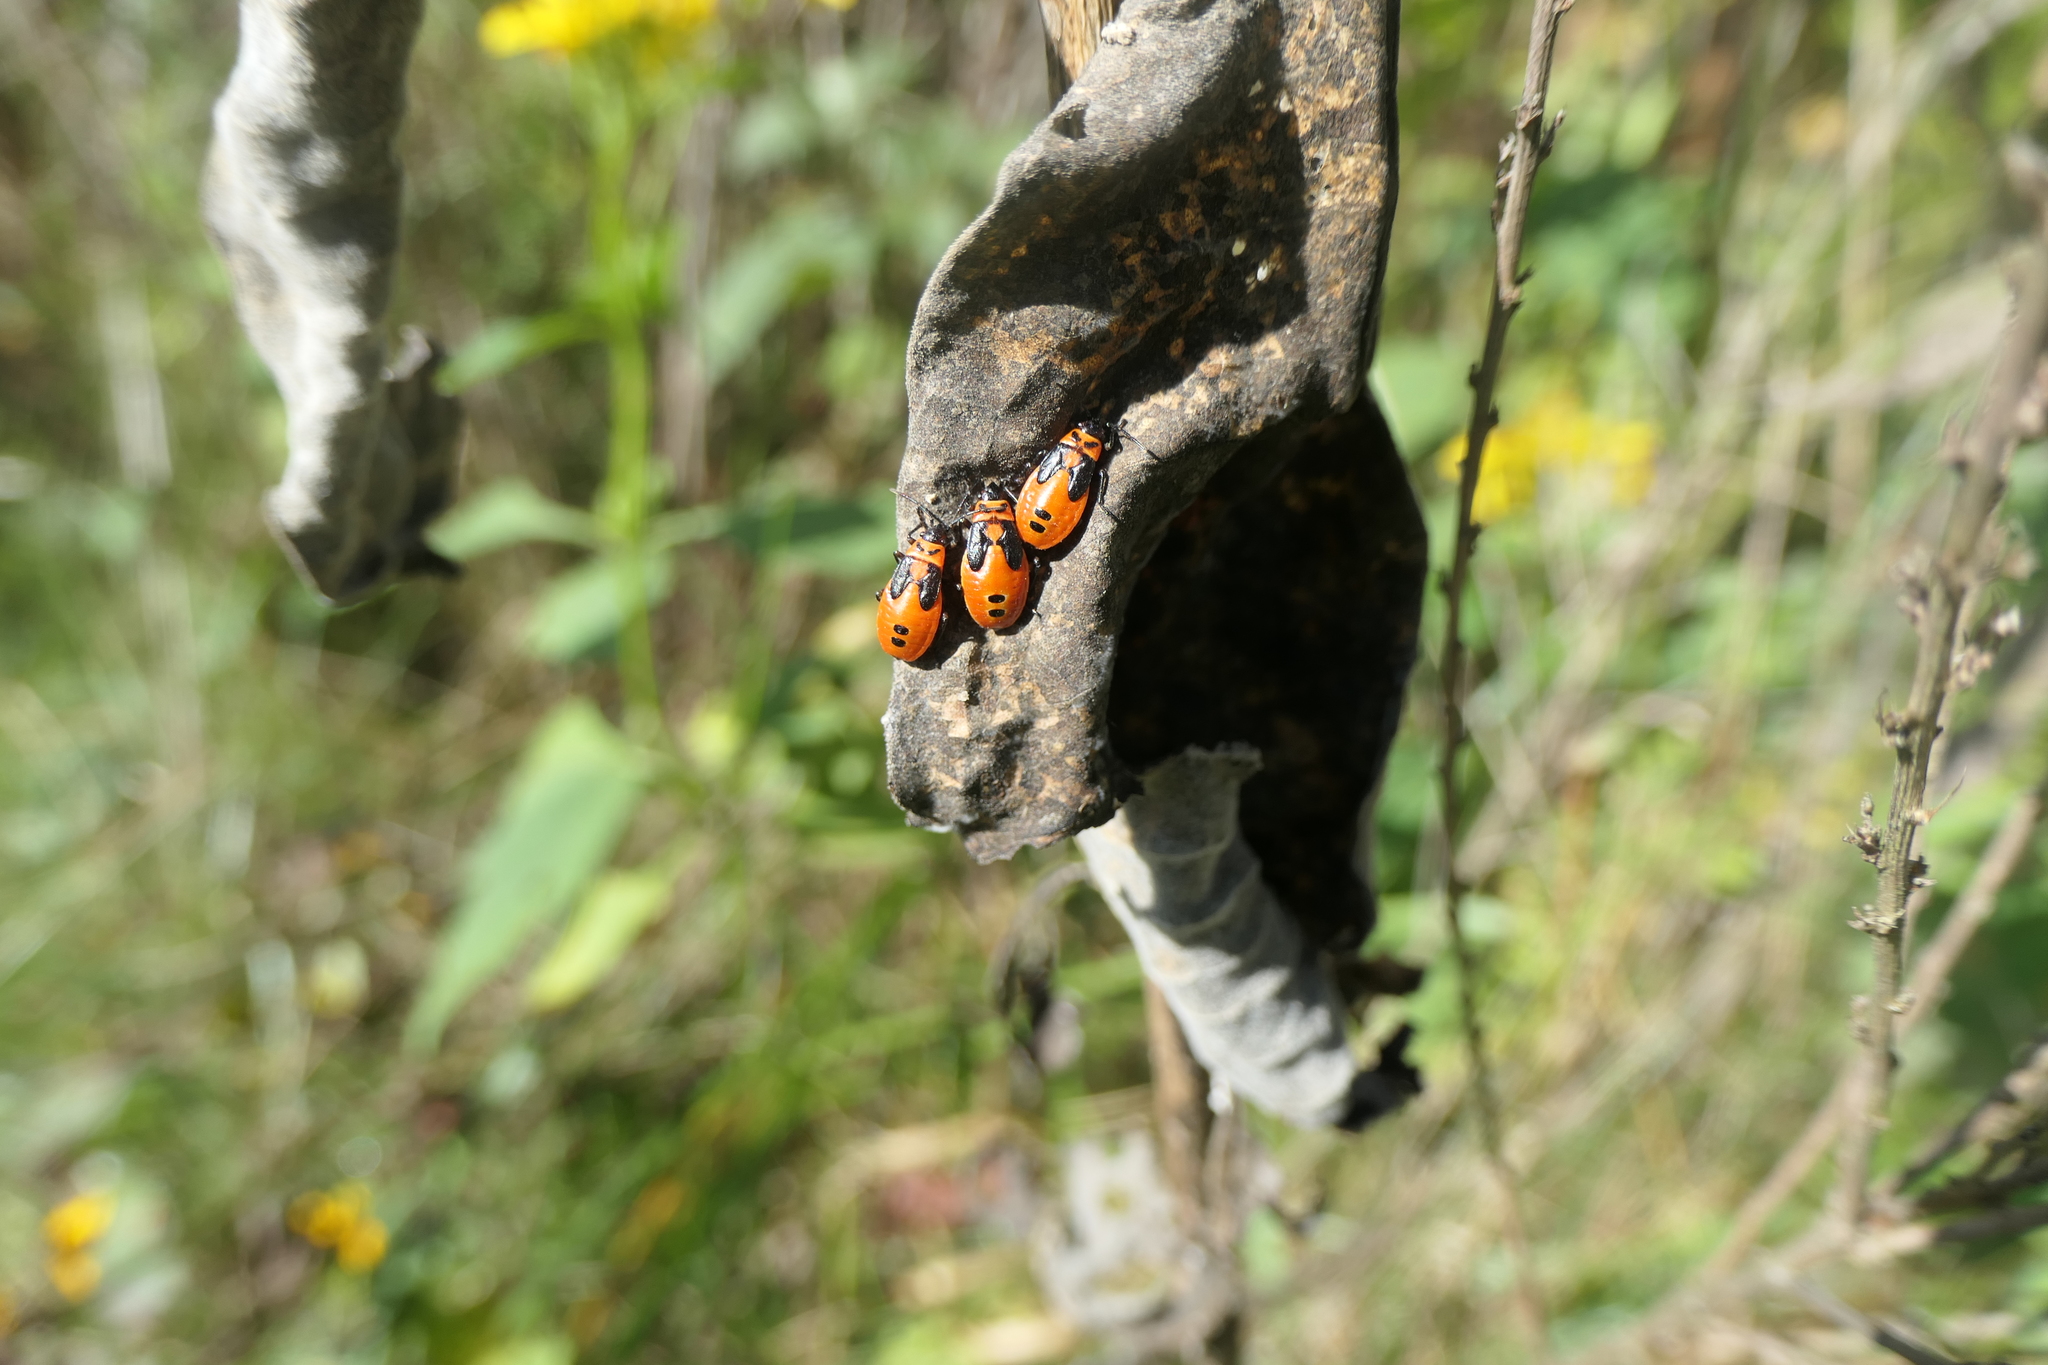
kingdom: Animalia
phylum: Arthropoda
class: Insecta
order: Hemiptera
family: Lygaeidae
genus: Lygaeus
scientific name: Lygaeus turcicus
